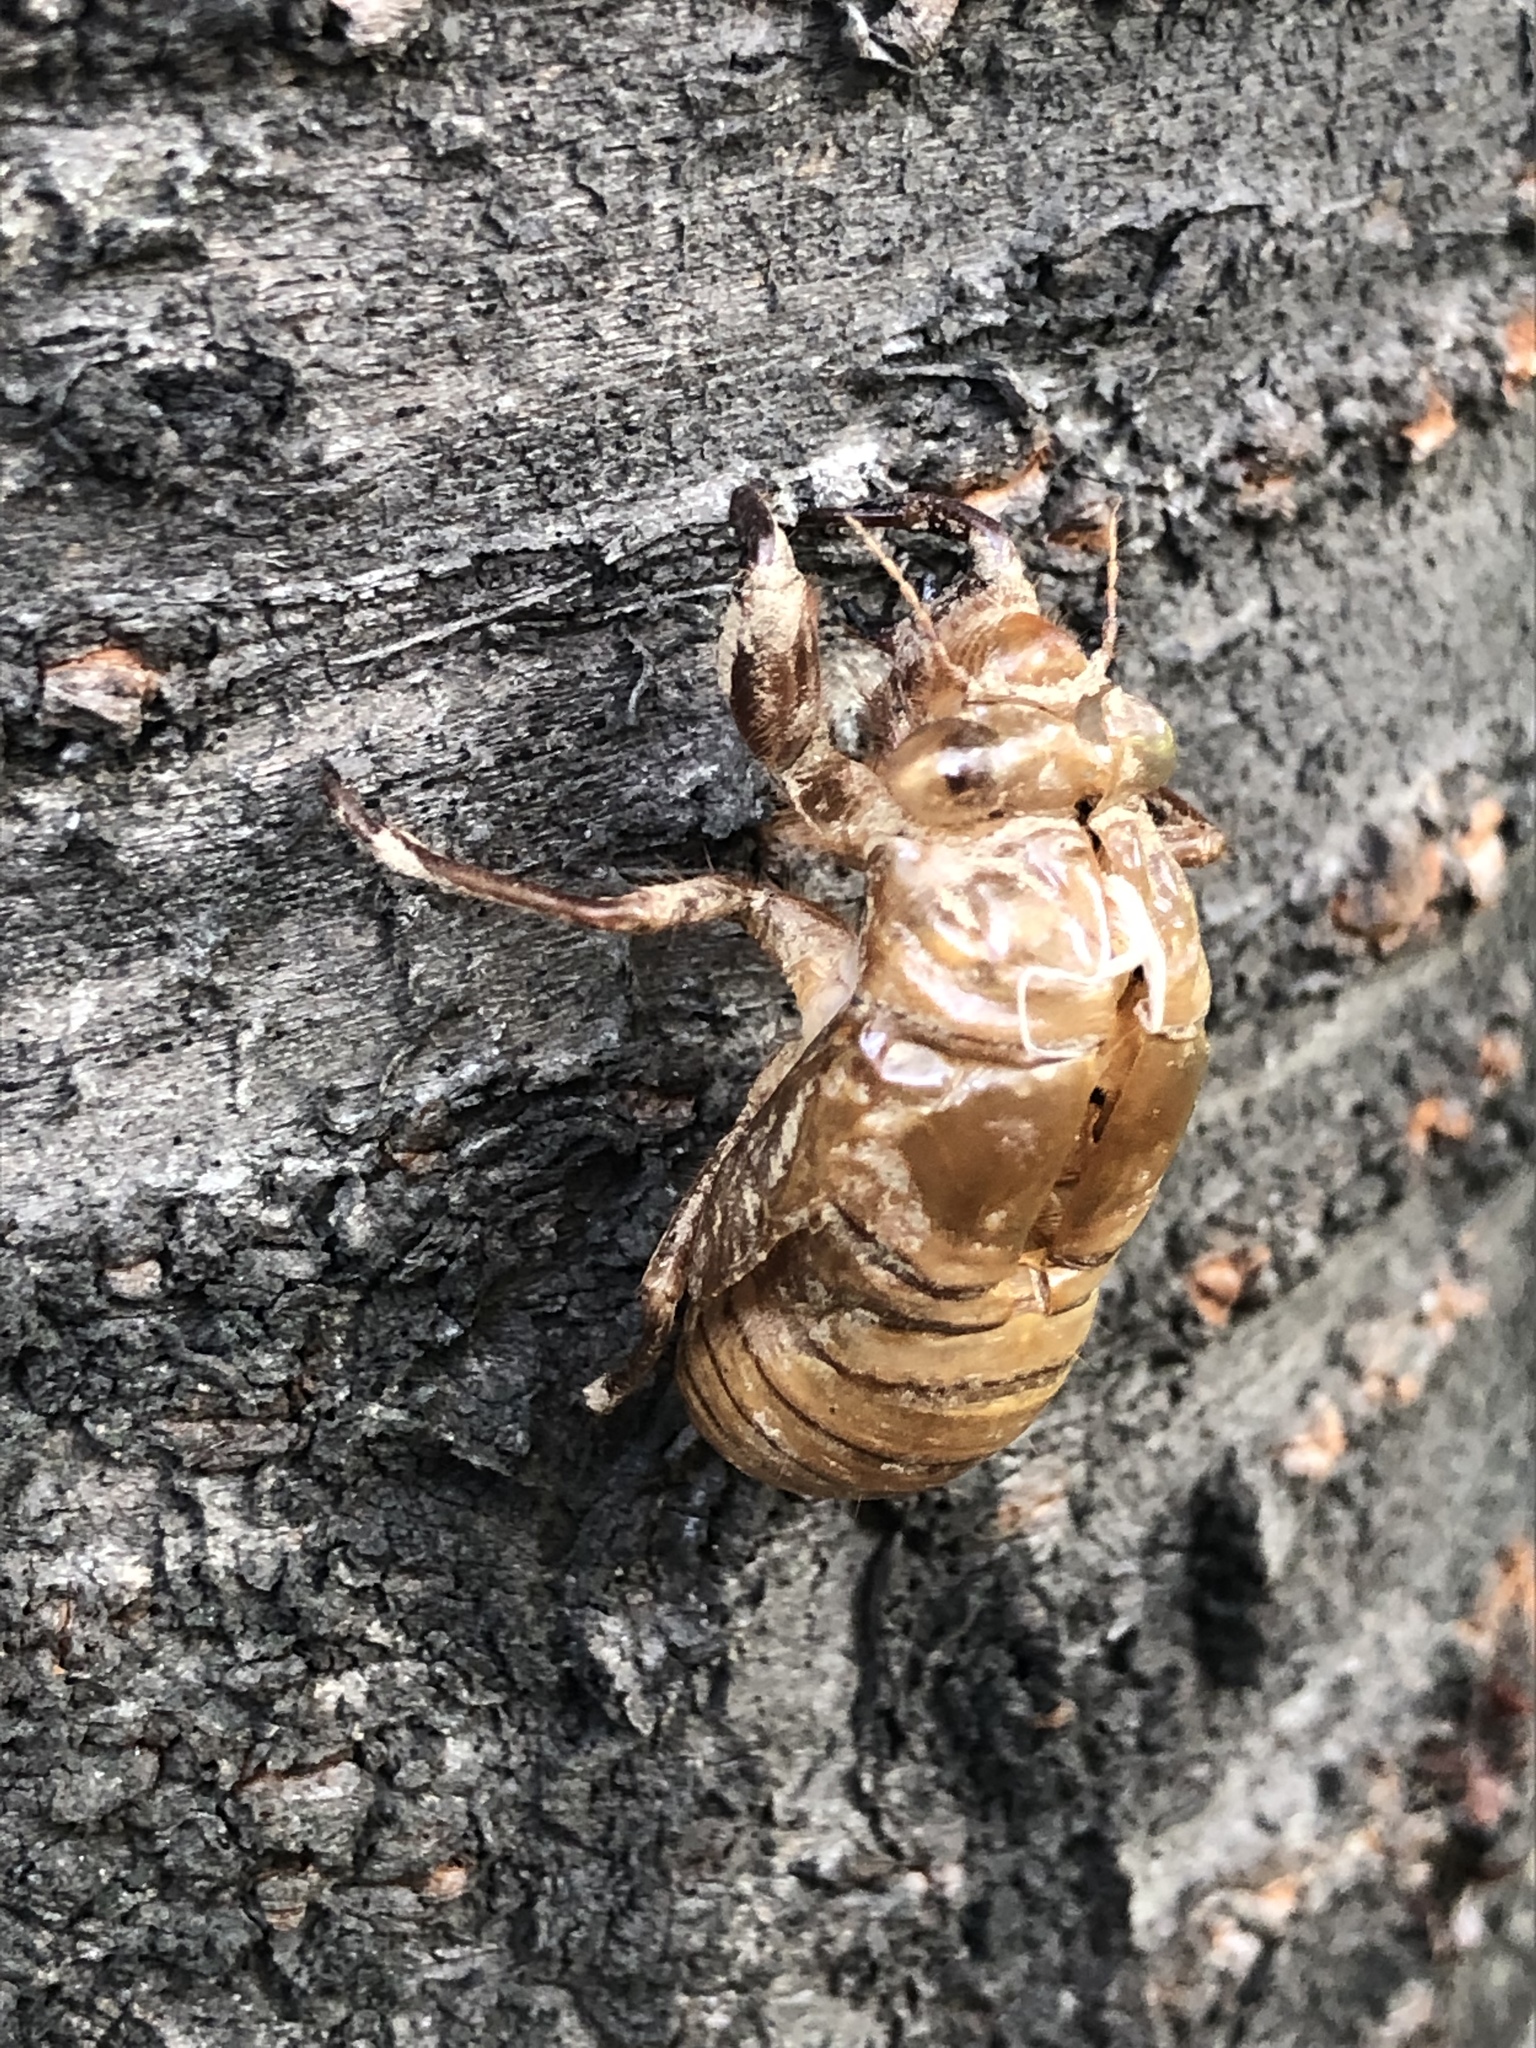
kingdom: Animalia
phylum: Arthropoda
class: Insecta
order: Hemiptera
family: Cicadidae
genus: Hyalessa
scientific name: Hyalessa maculaticollis
